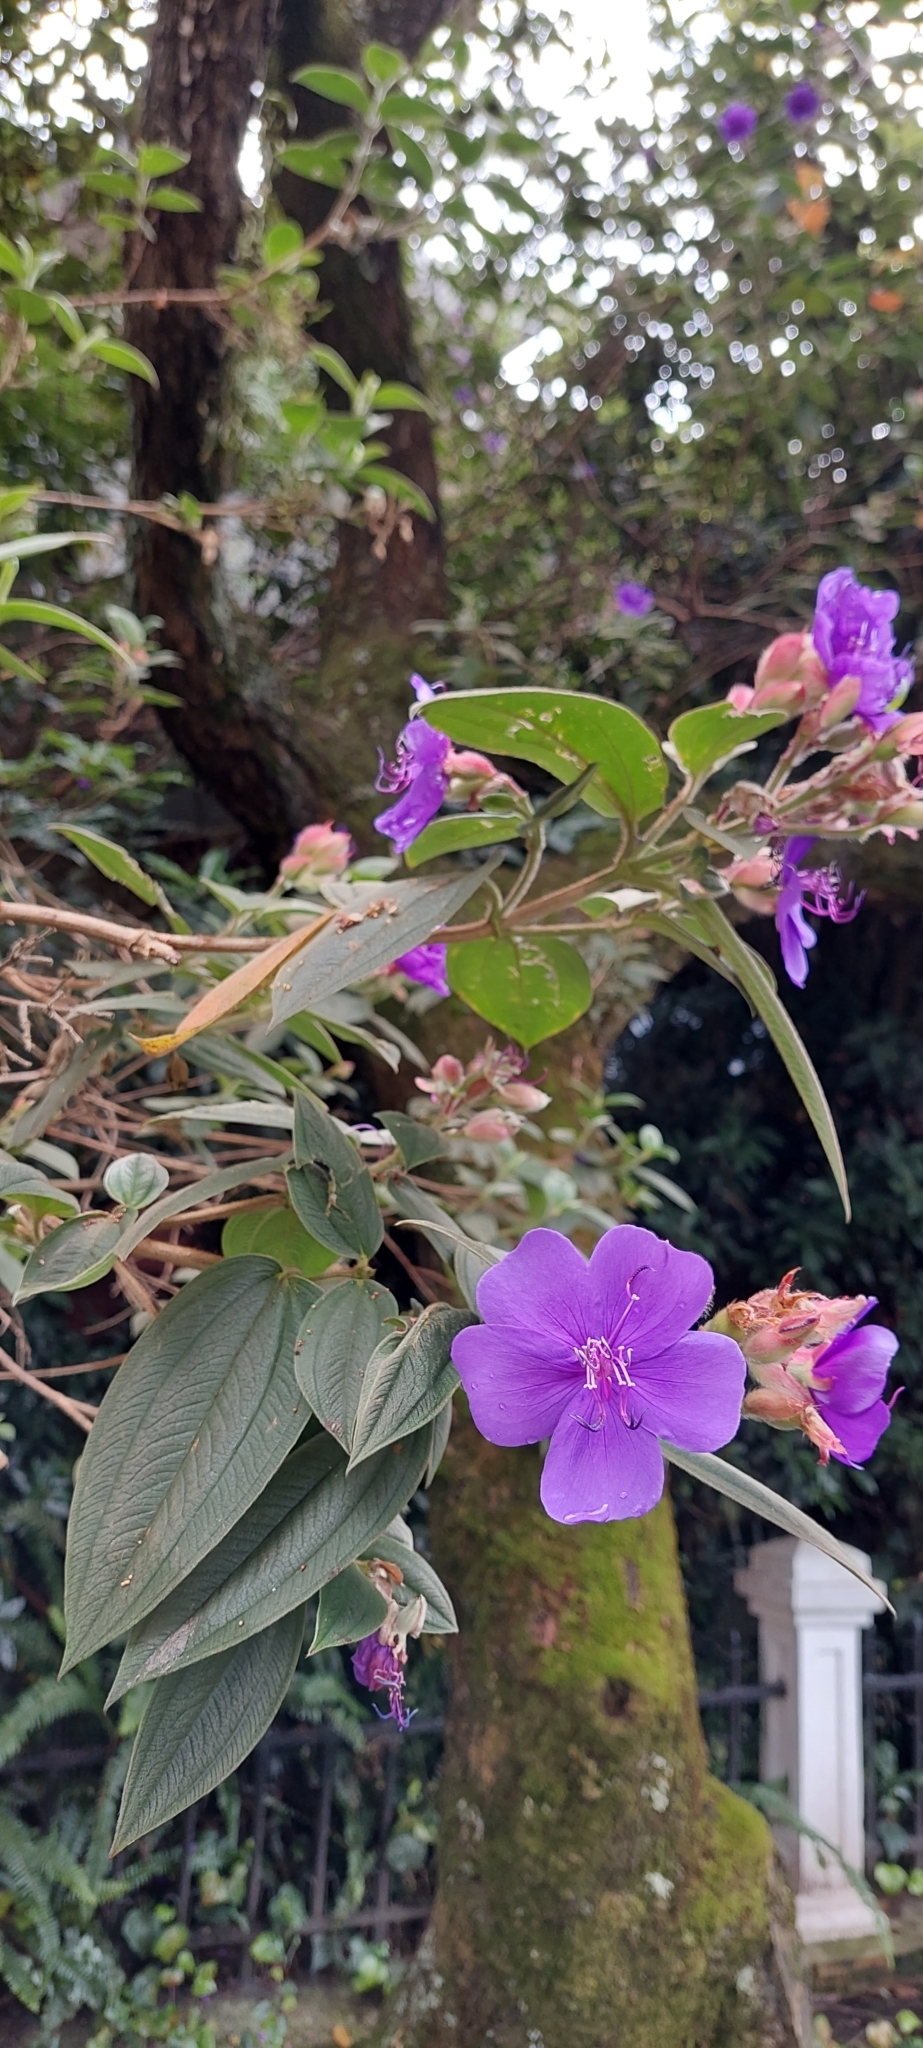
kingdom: Plantae
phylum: Tracheophyta
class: Magnoliopsida
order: Myrtales
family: Melastomataceae
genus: Pleroma
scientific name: Pleroma urvilleanum
